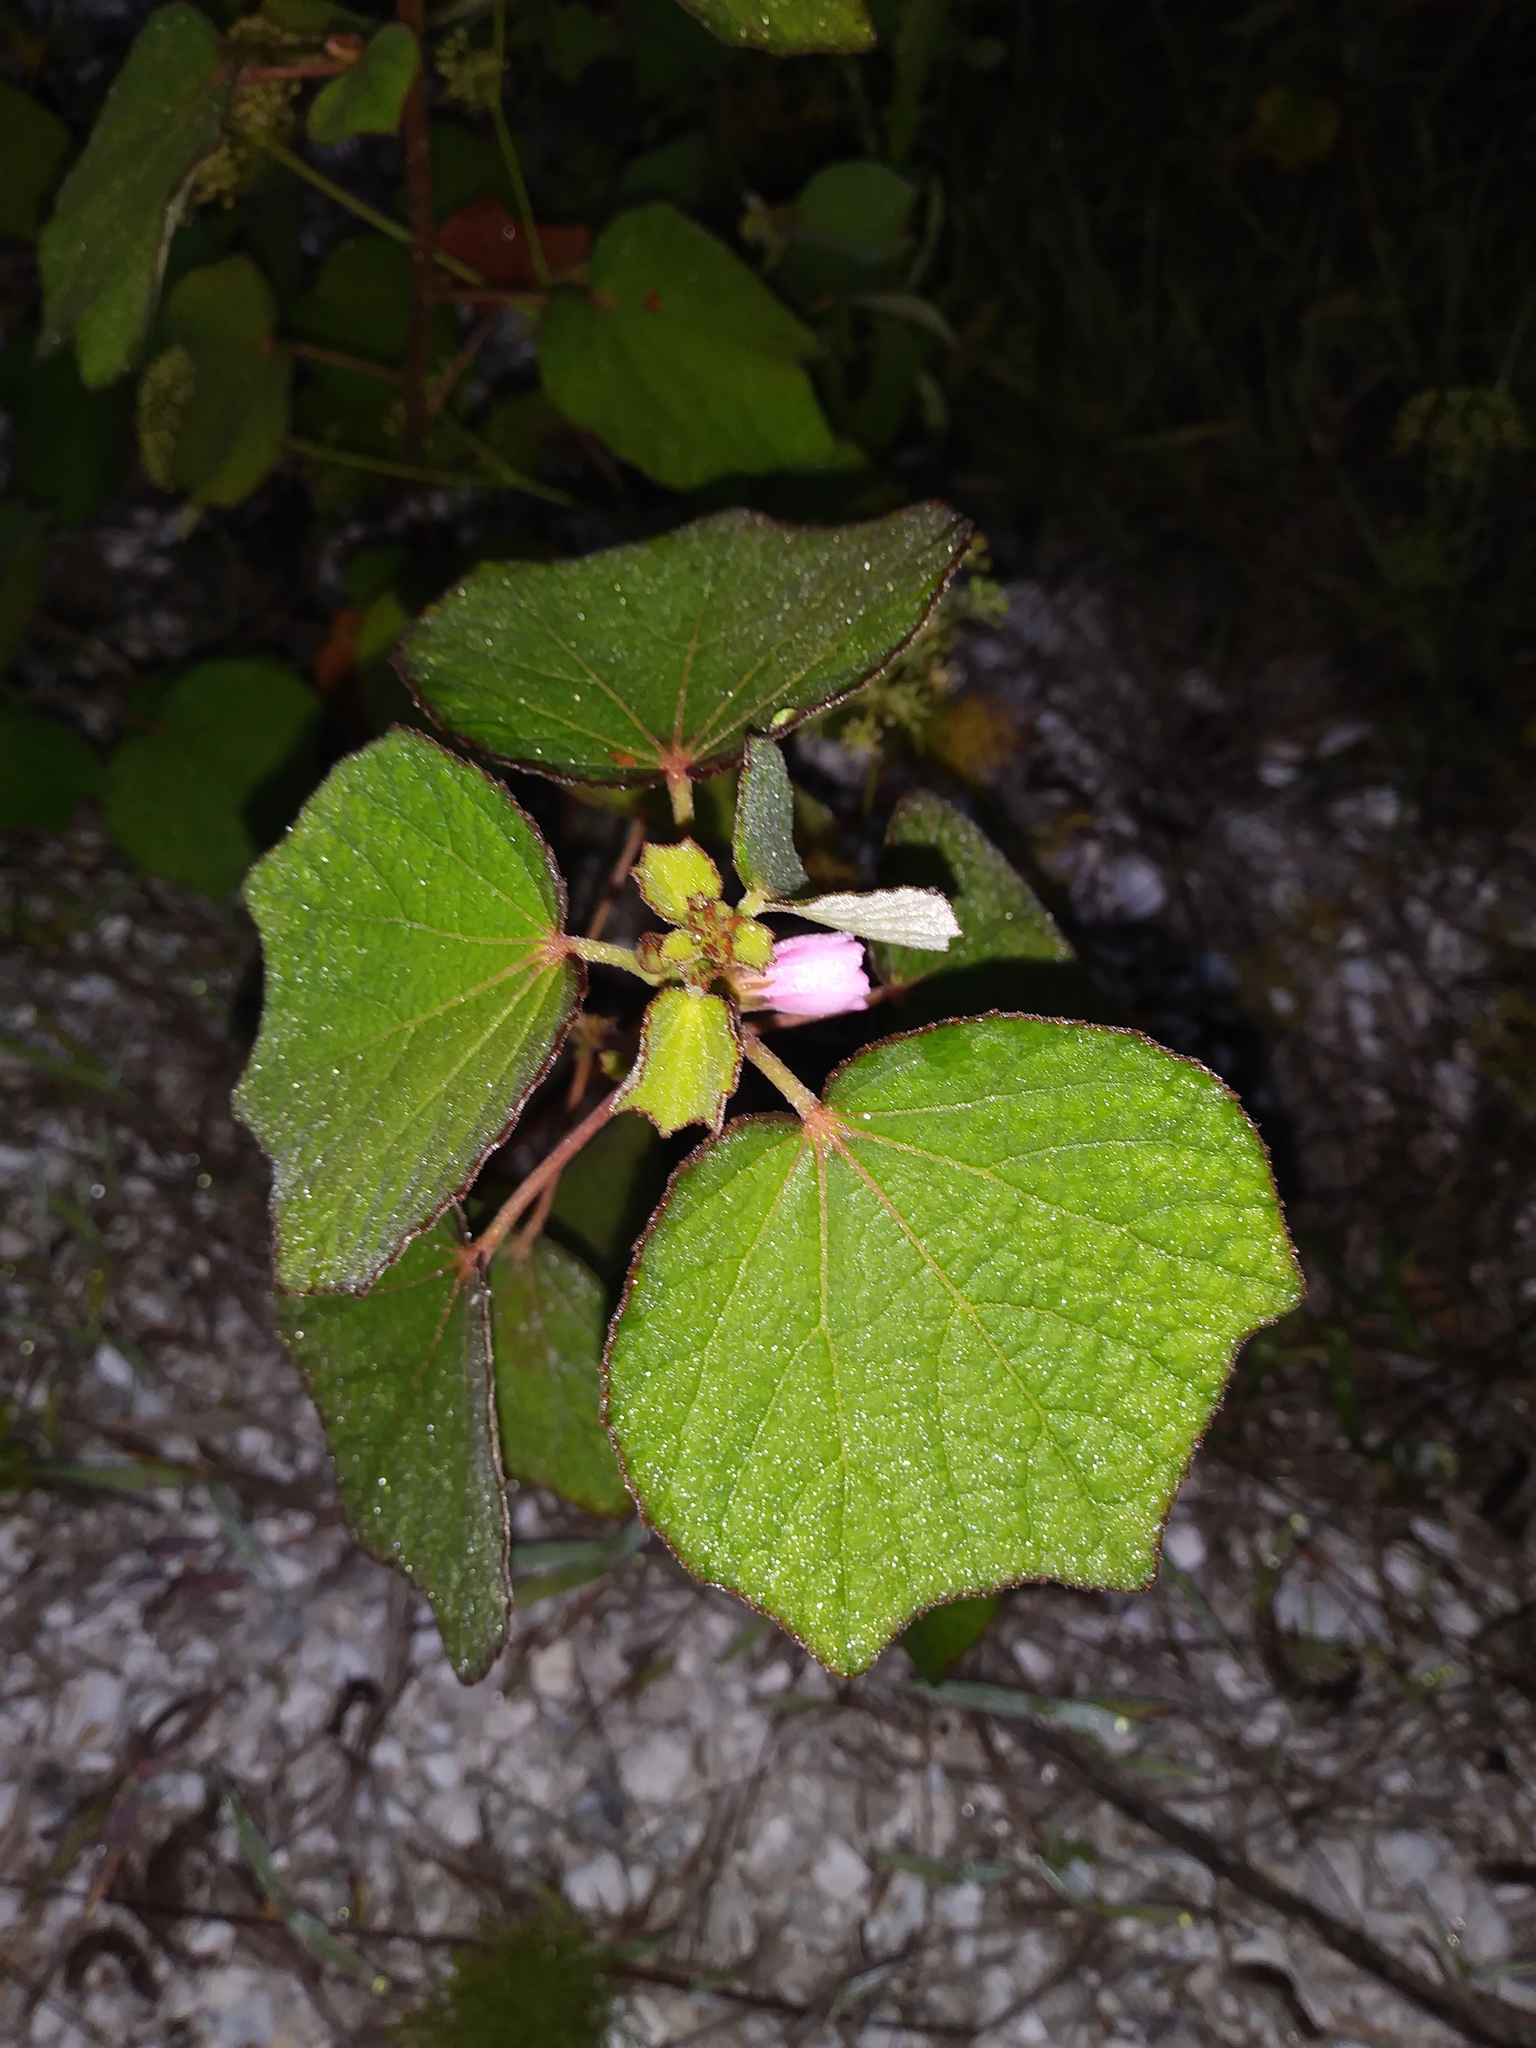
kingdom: Plantae
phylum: Tracheophyta
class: Magnoliopsida
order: Malvales
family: Malvaceae
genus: Urena
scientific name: Urena lobata
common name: Caesarweed
